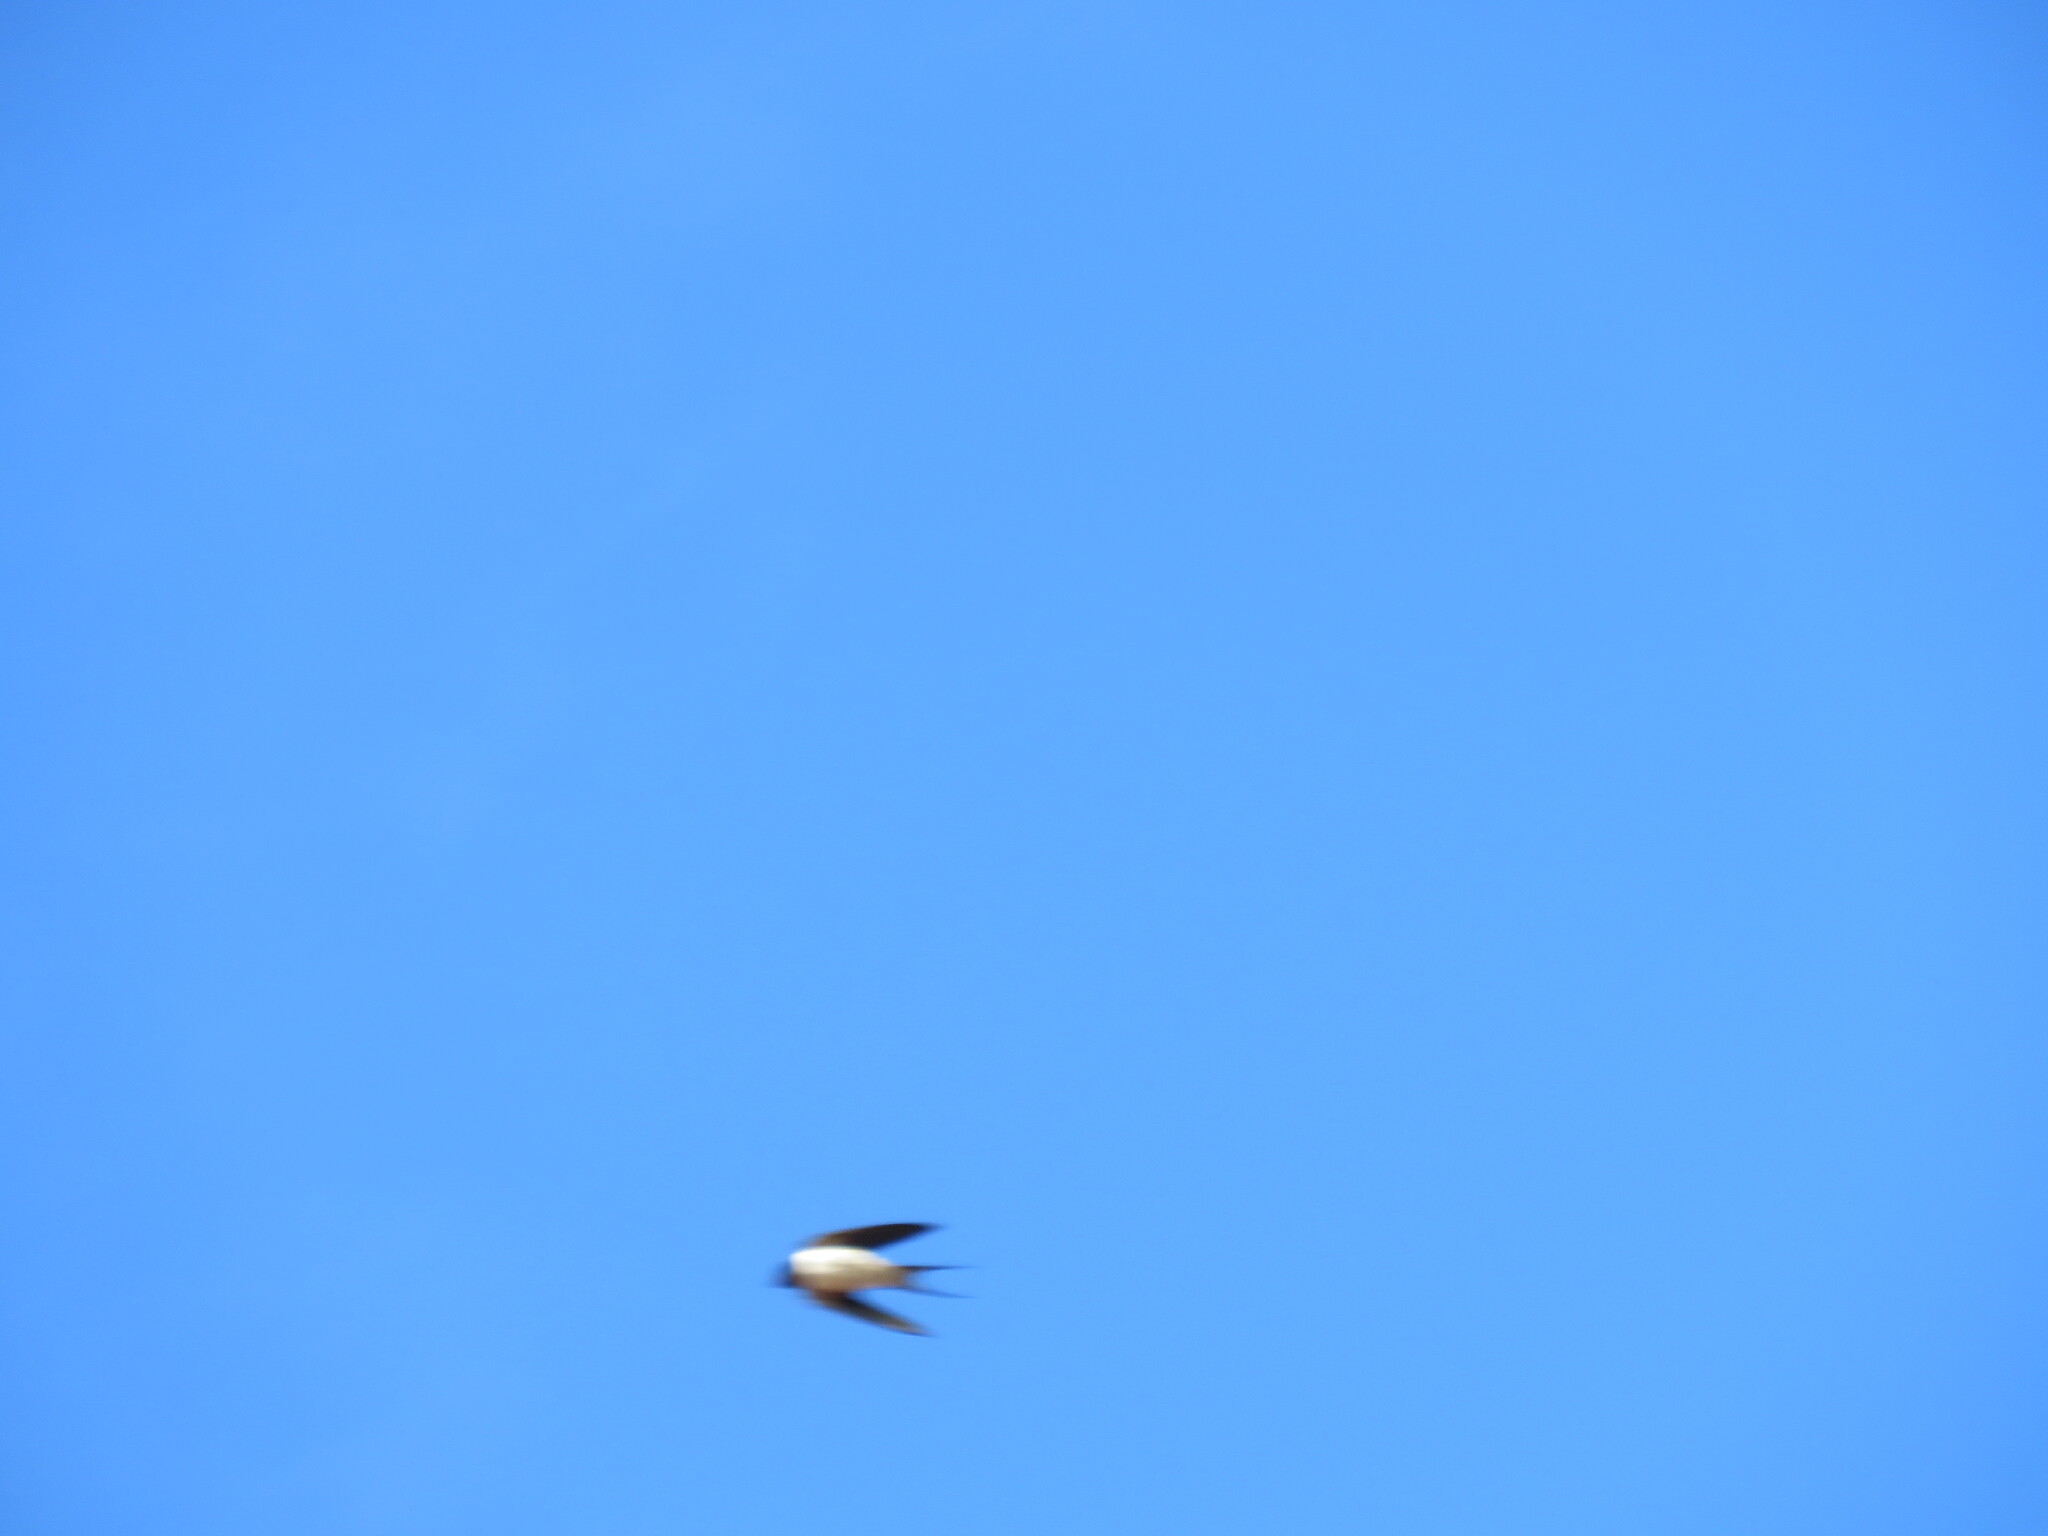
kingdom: Animalia
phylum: Chordata
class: Aves
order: Passeriformes
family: Hirundinidae
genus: Hirundo
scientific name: Hirundo rustica
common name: Barn swallow
